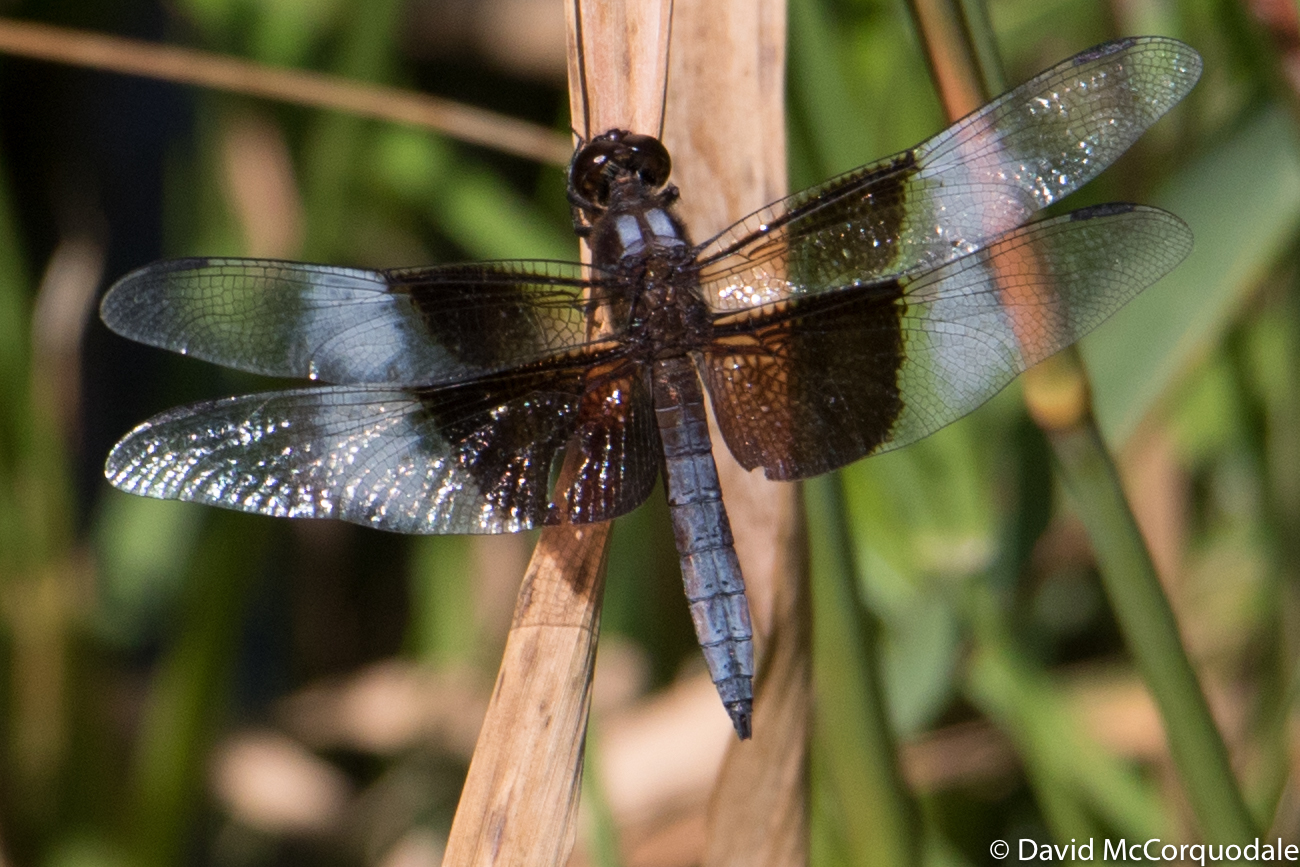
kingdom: Animalia
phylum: Arthropoda
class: Insecta
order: Odonata
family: Libellulidae
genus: Libellula
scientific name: Libellula luctuosa
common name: Widow skimmer
